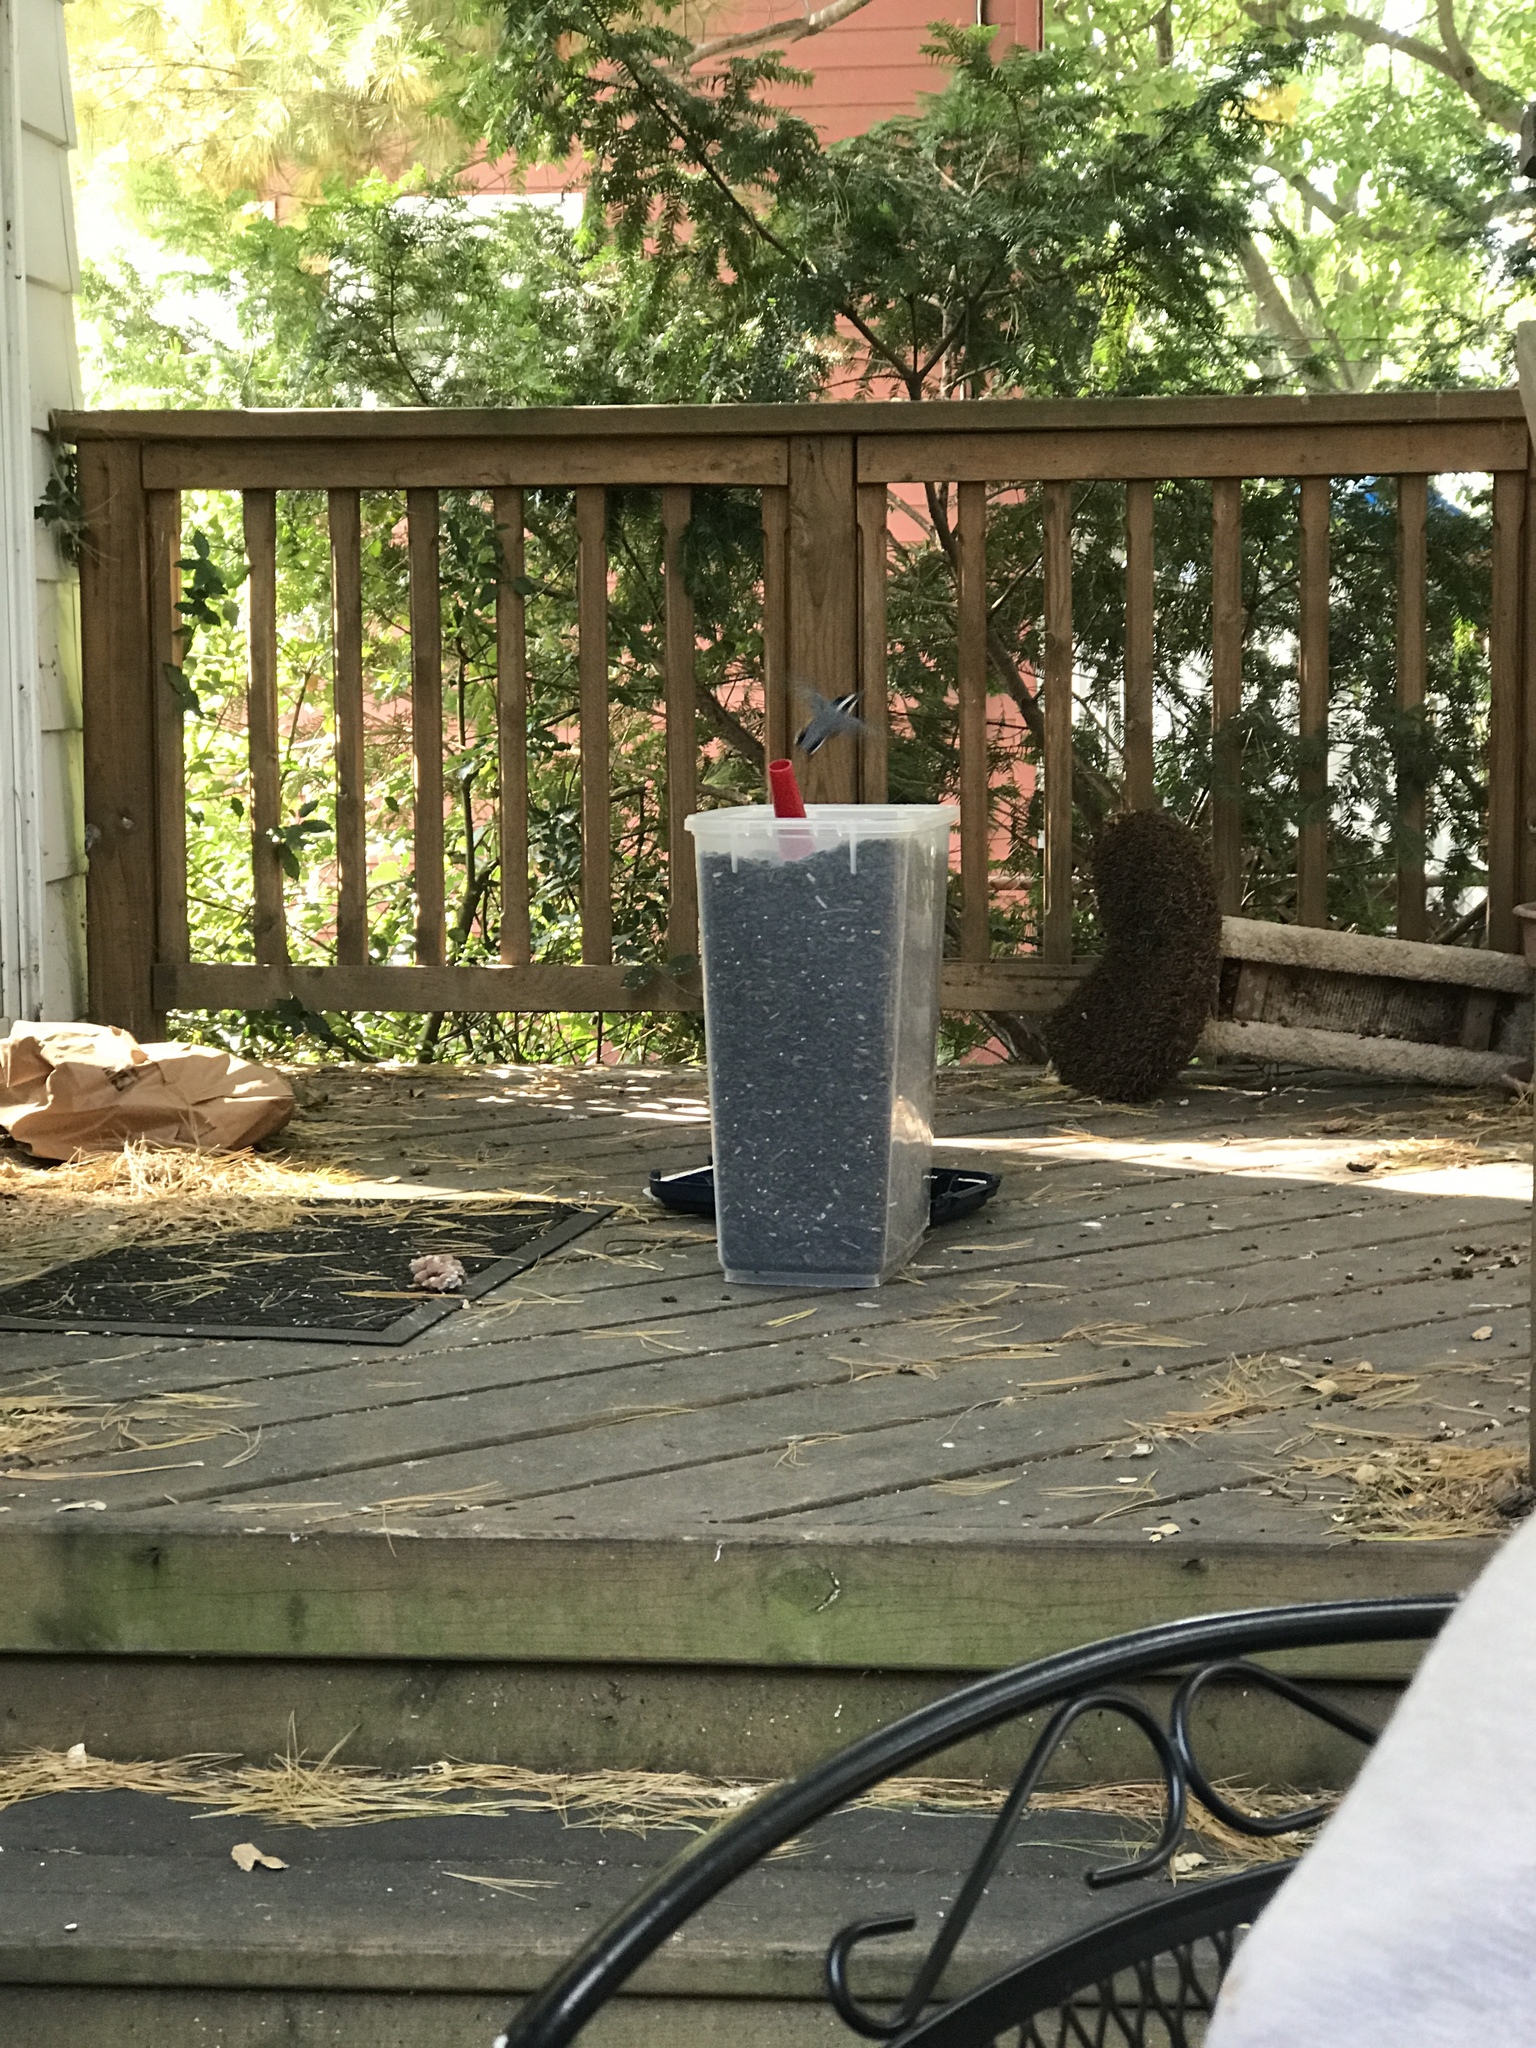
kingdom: Animalia
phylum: Chordata
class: Aves
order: Passeriformes
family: Sittidae
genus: Sitta
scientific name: Sitta canadensis
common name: Red-breasted nuthatch
